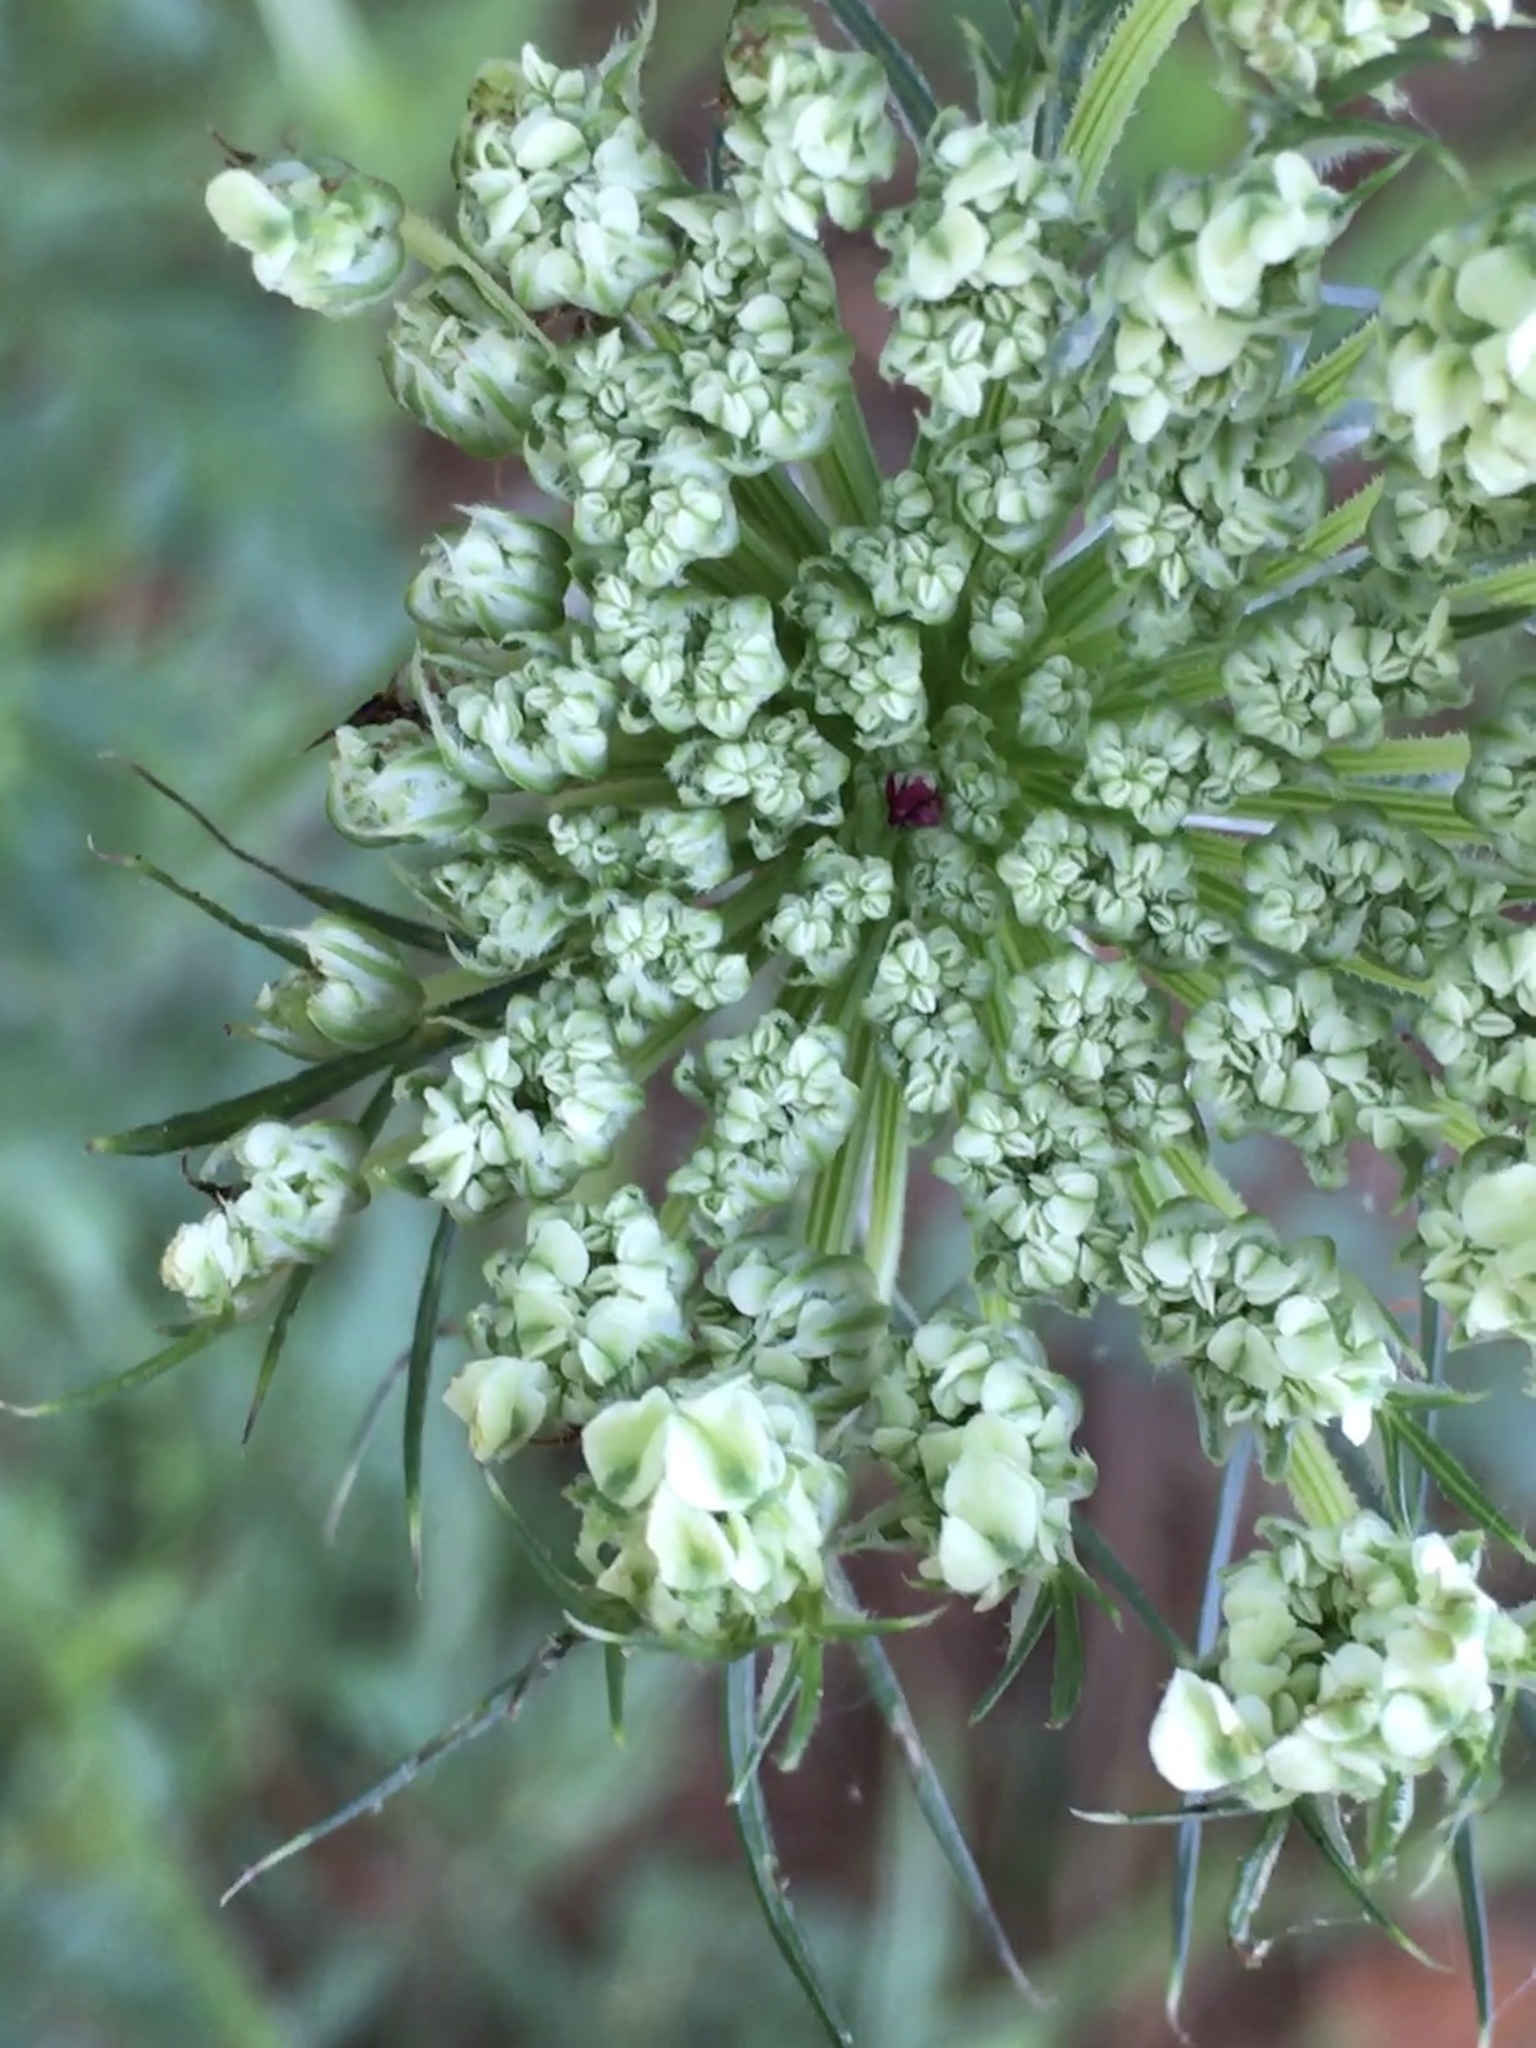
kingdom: Plantae
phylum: Tracheophyta
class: Magnoliopsida
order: Apiales
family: Apiaceae
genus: Daucus
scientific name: Daucus carota
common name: Wild carrot
